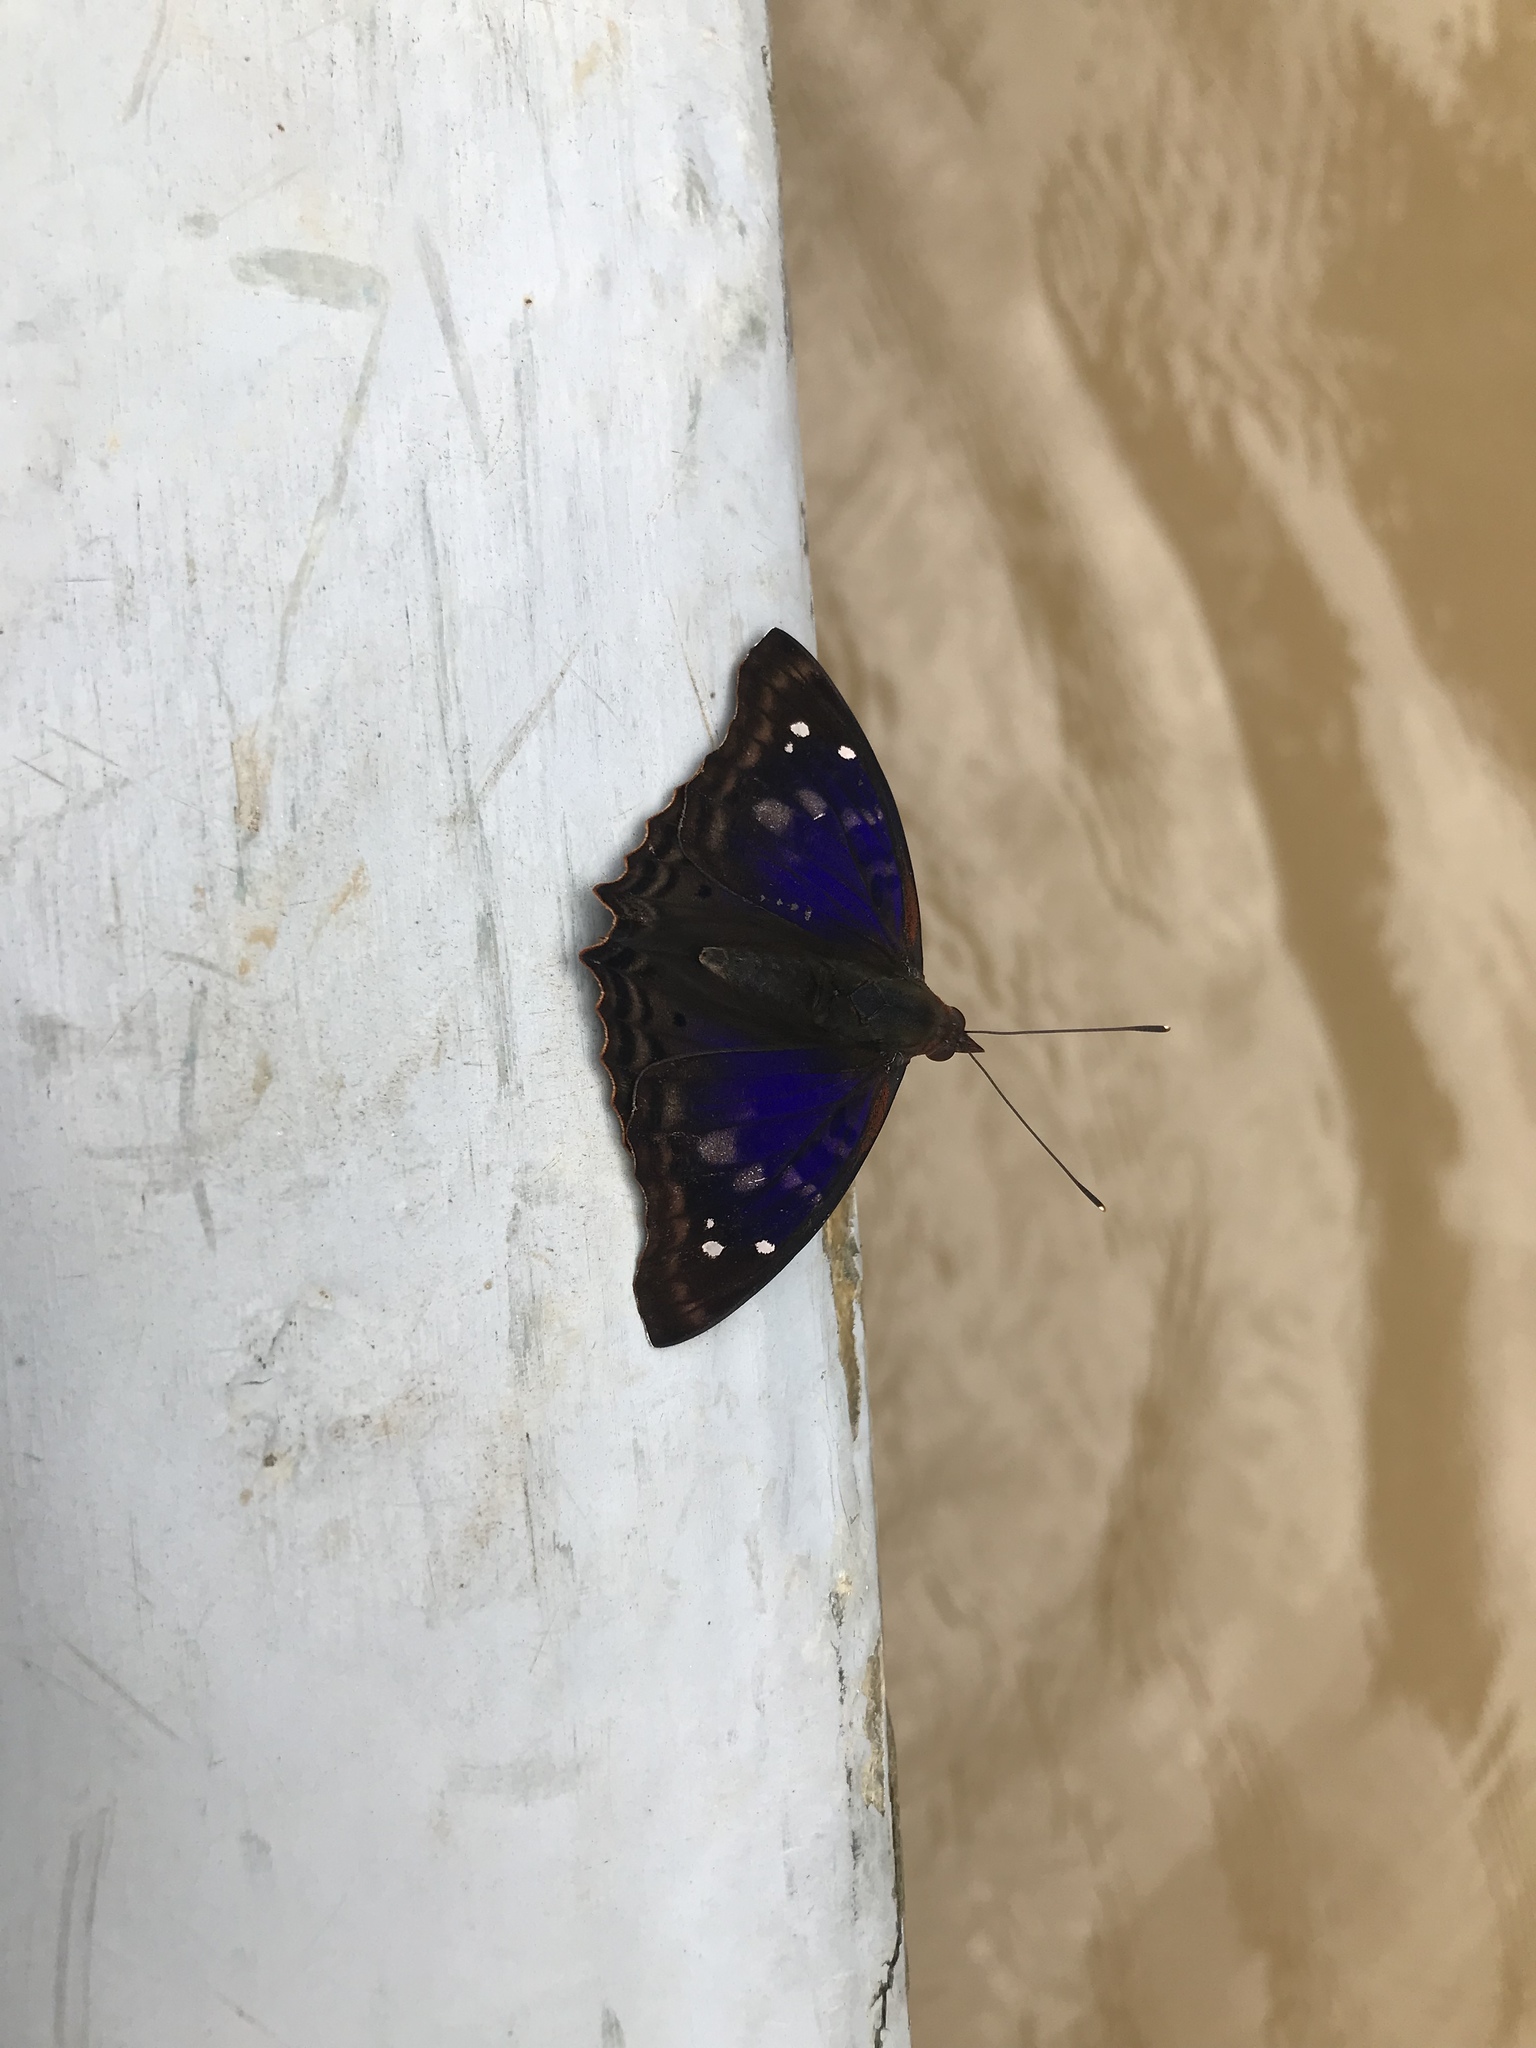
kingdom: Animalia
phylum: Arthropoda
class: Insecta
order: Lepidoptera
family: Nymphalidae
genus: Doxocopa
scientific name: Doxocopa agathina
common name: Agathina emperor
